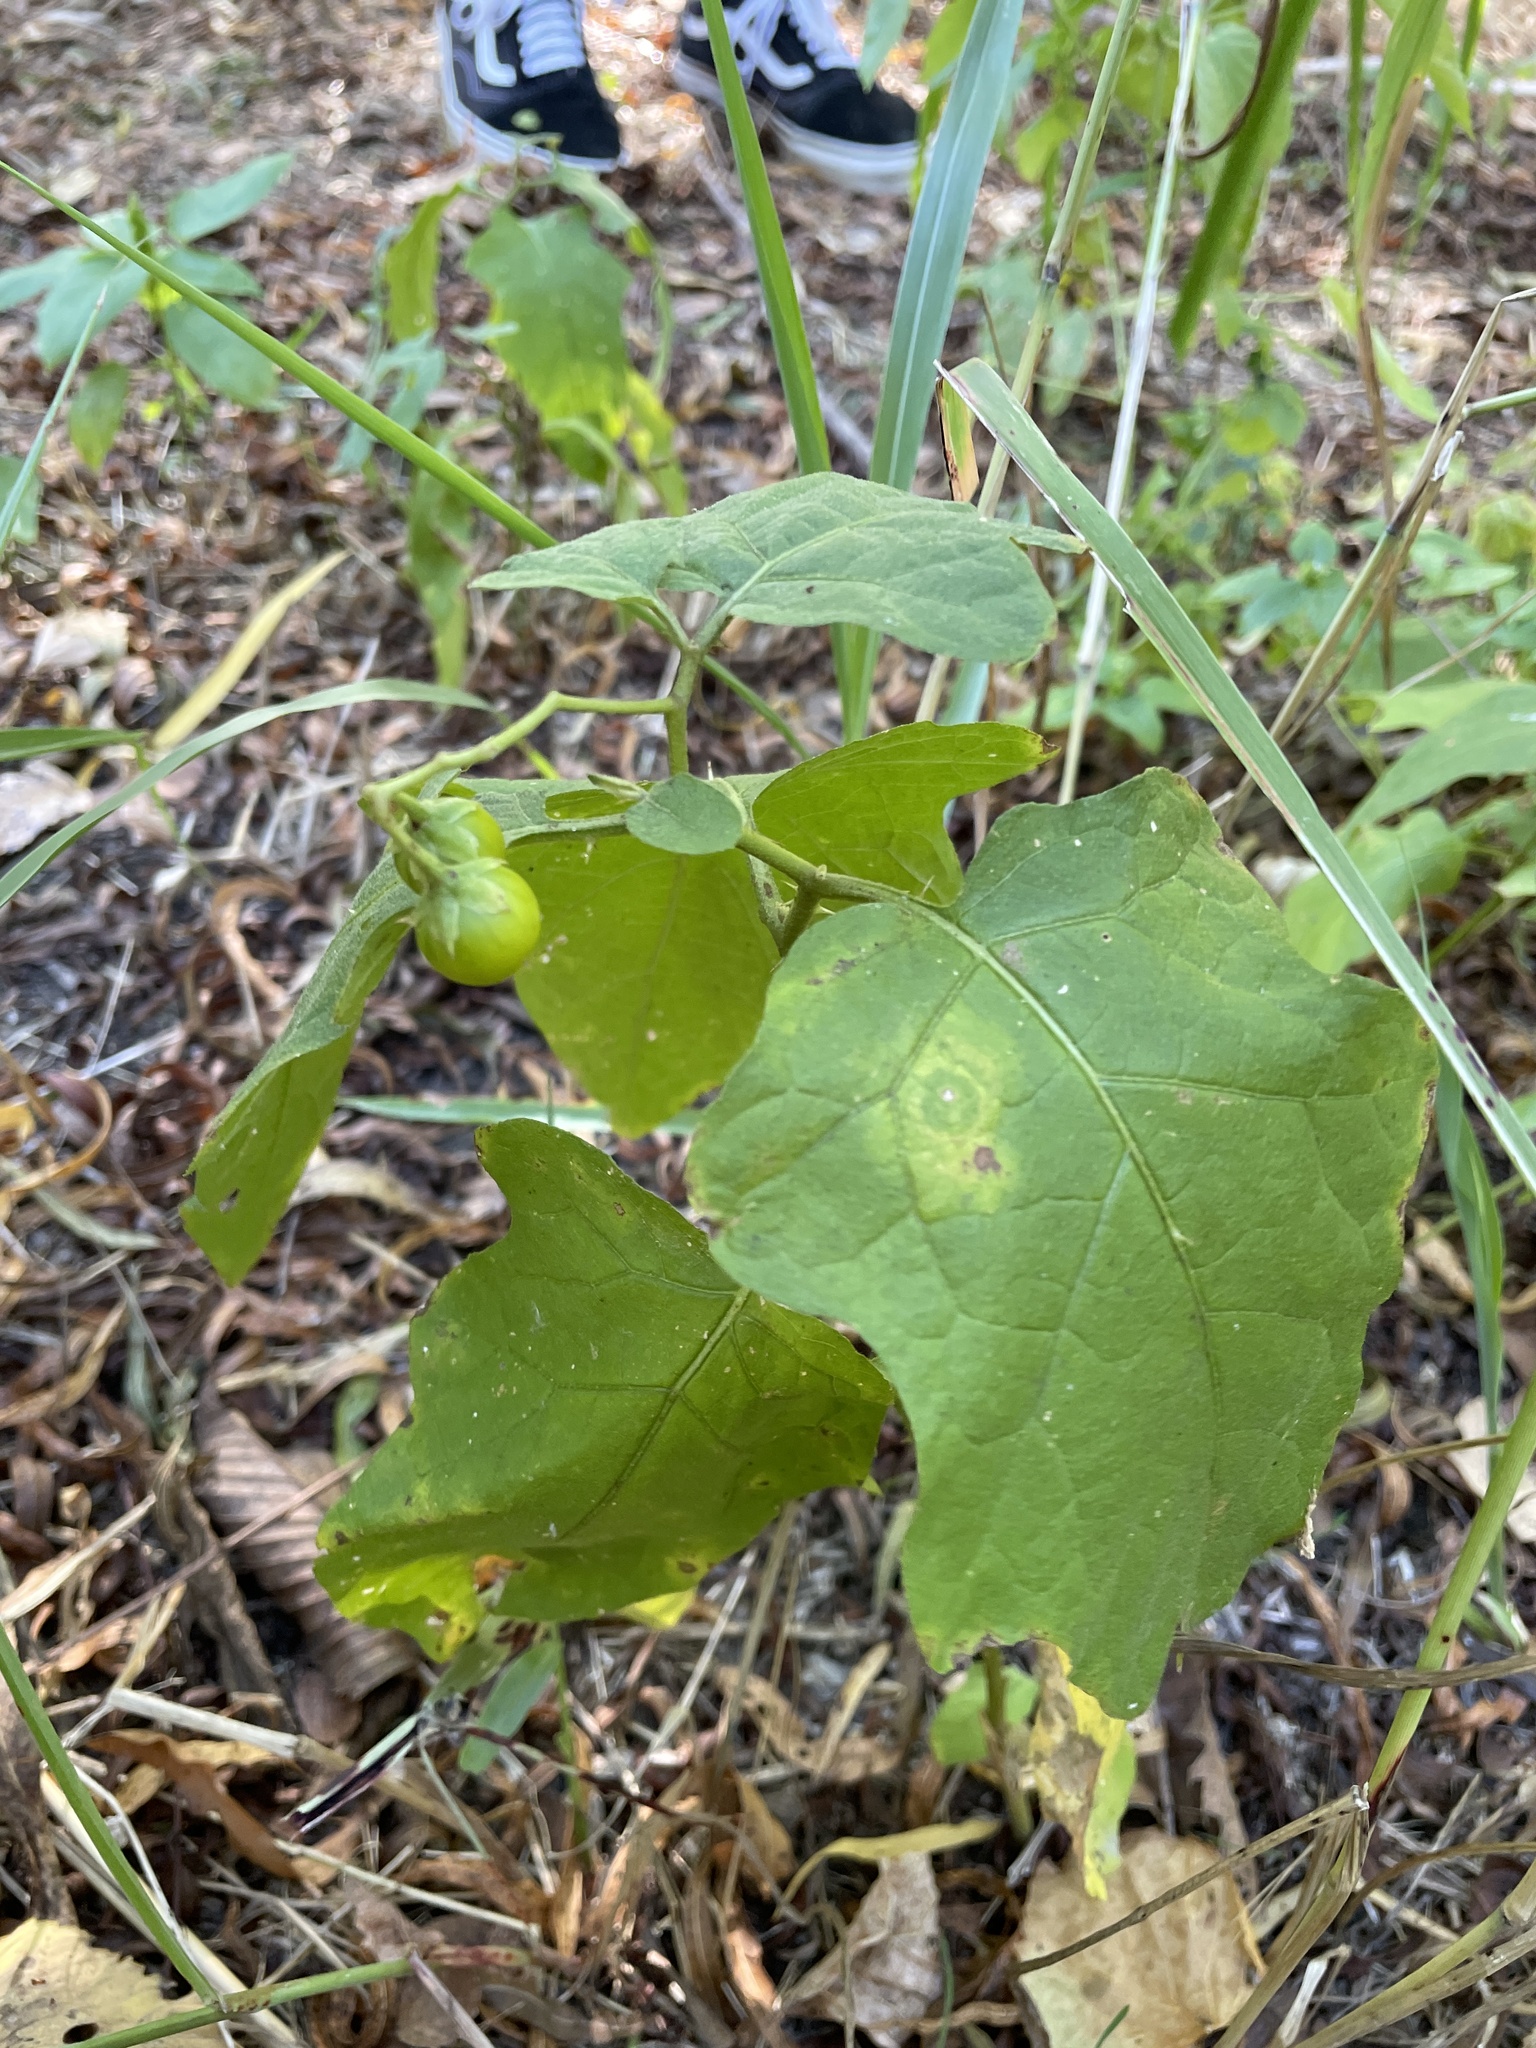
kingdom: Plantae
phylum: Tracheophyta
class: Magnoliopsida
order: Solanales
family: Solanaceae
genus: Solanum
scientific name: Solanum carolinense
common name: Horse-nettle
